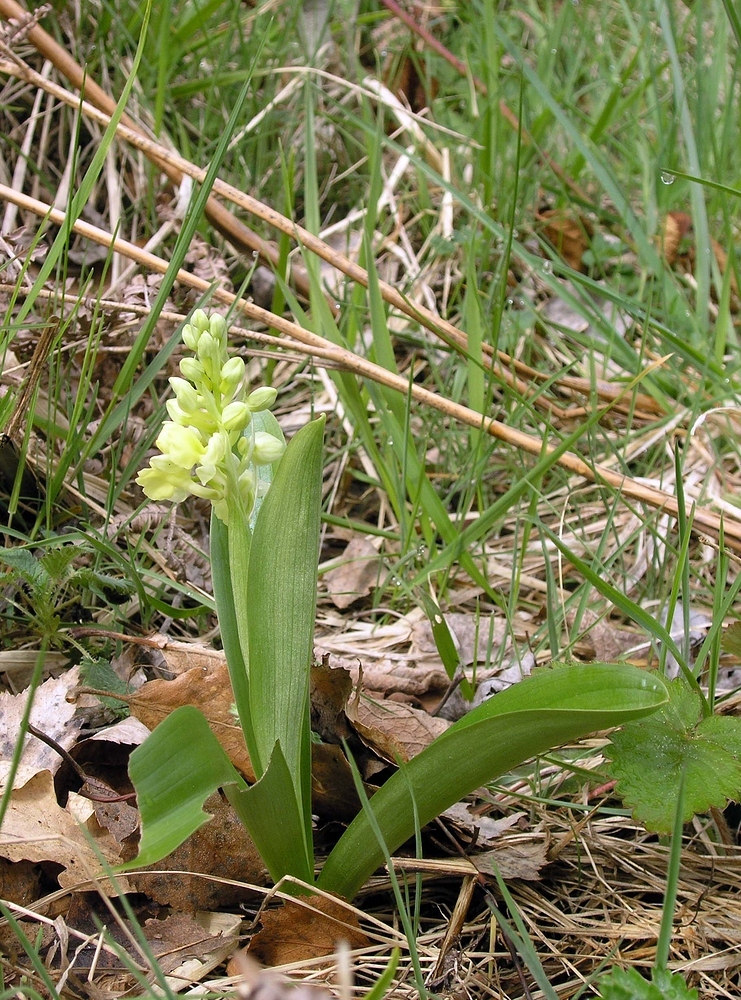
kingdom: Plantae
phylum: Tracheophyta
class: Liliopsida
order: Asparagales
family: Orchidaceae
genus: Orchis
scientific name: Orchis pallens
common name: Pale-flowered orchid
